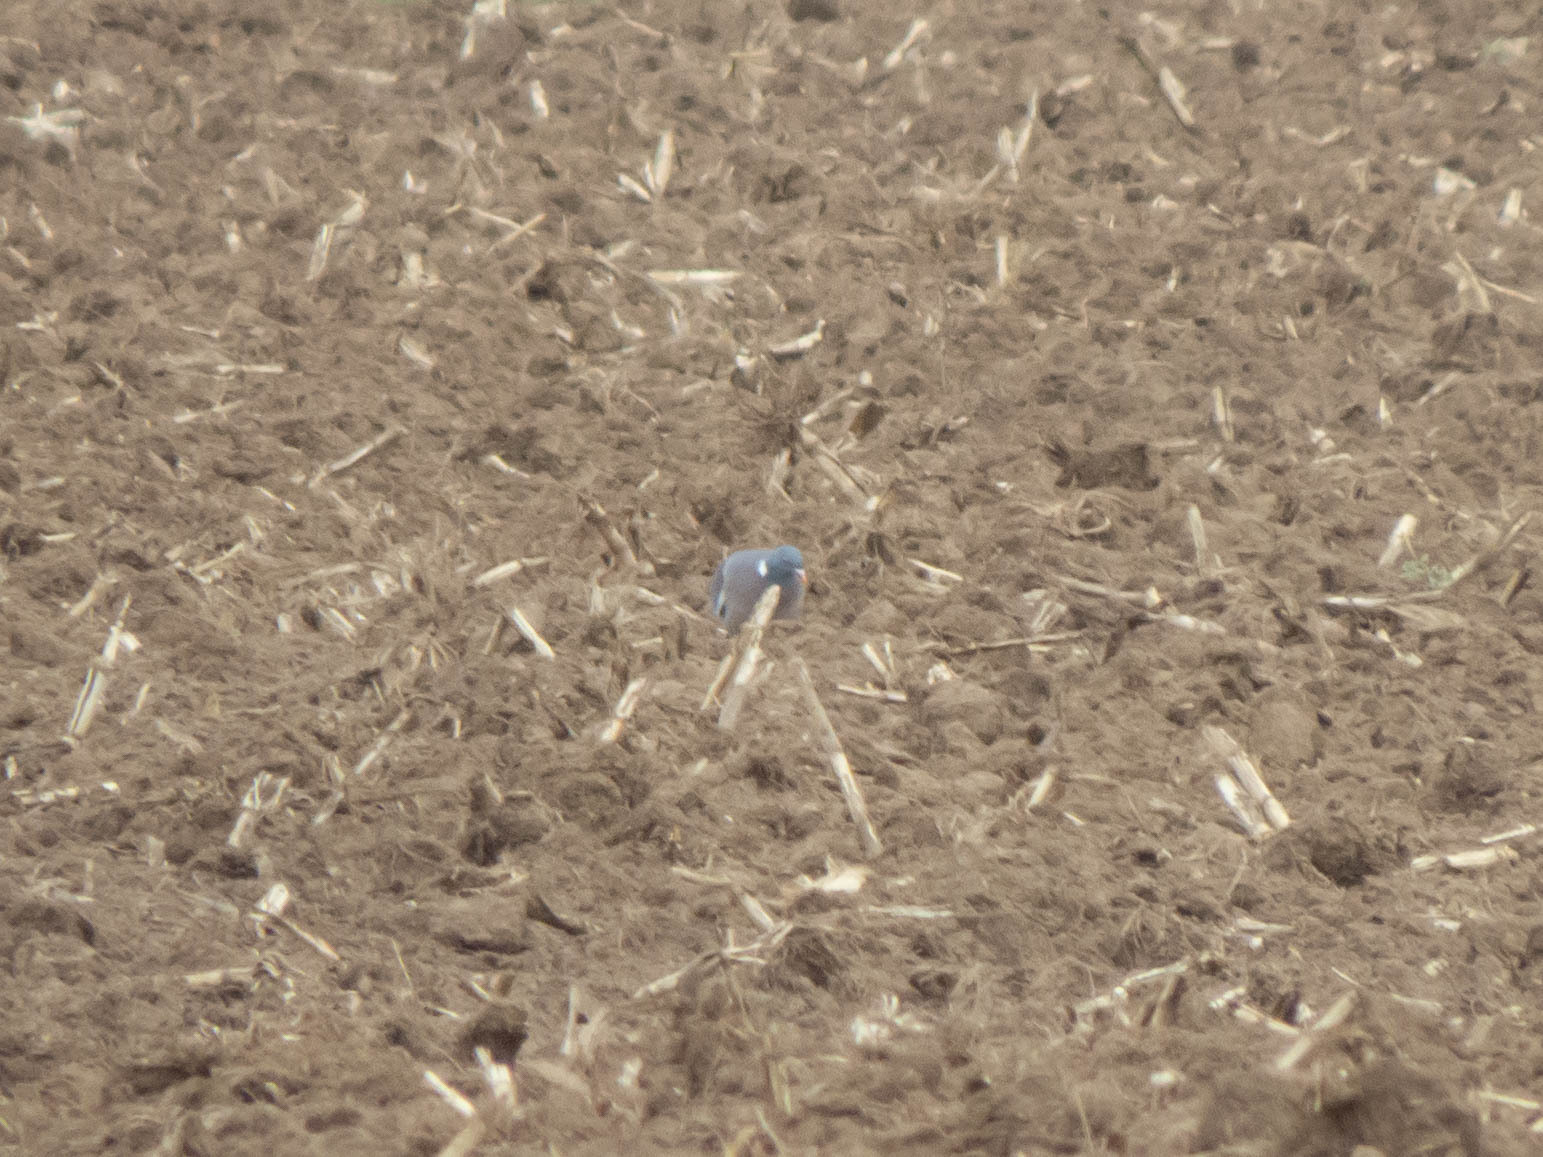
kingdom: Animalia
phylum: Chordata
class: Aves
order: Columbiformes
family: Columbidae
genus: Columba
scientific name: Columba palumbus
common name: Common wood pigeon
